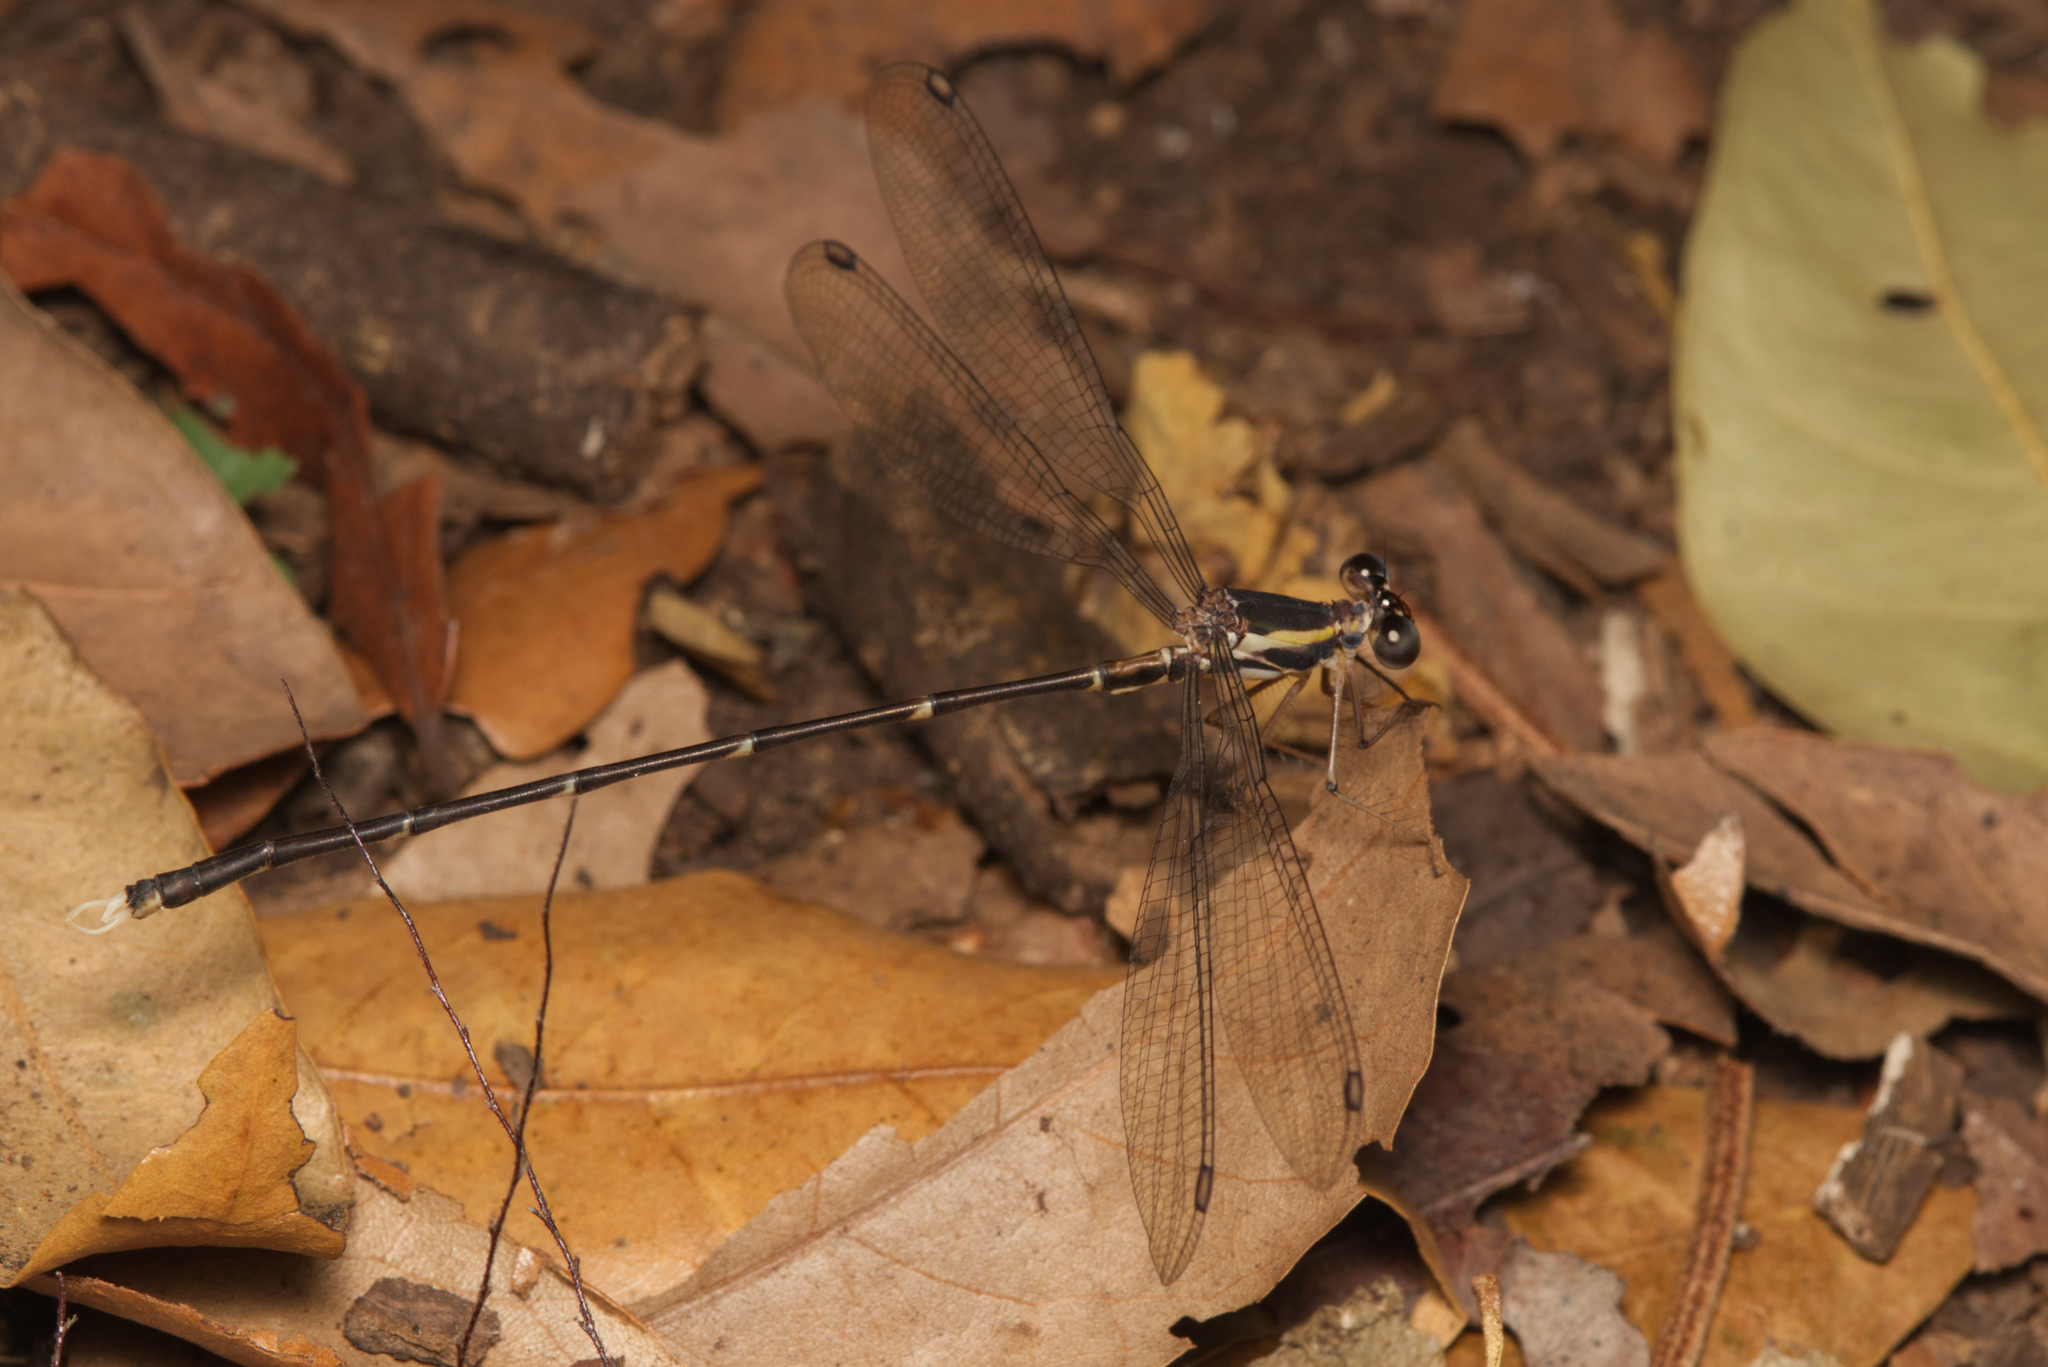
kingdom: Animalia
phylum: Arthropoda
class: Insecta
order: Odonata
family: Synlestidae
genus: Episynlestes
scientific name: Episynlestes albicaudus
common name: Southern whitetip
